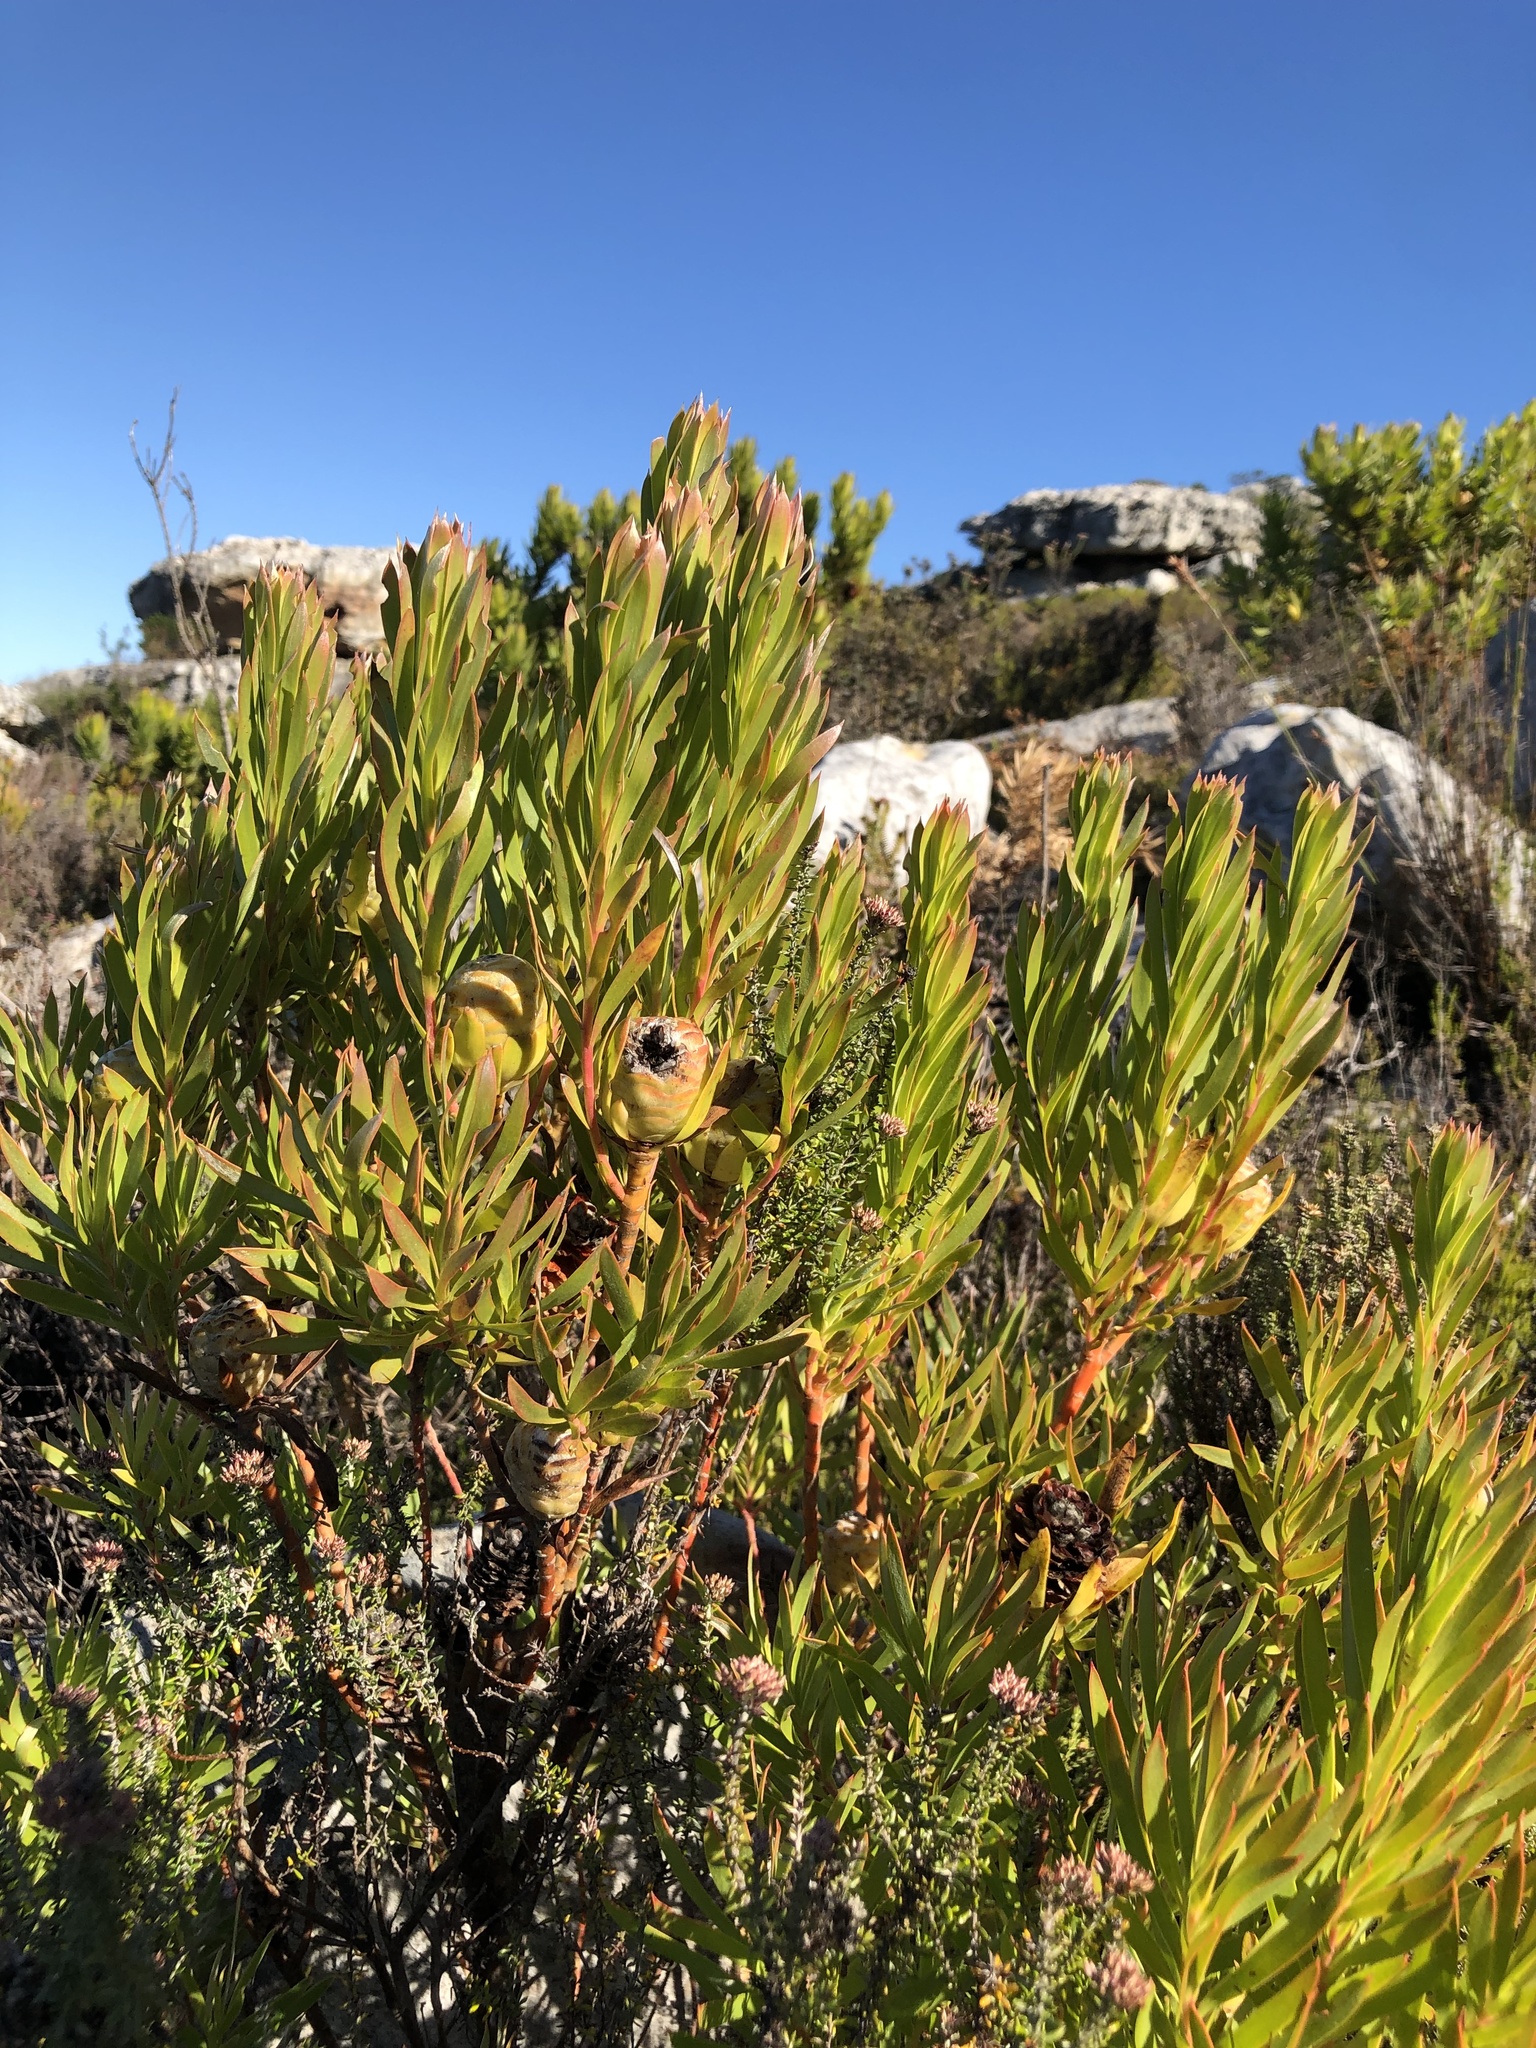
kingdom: Plantae
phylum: Tracheophyta
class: Magnoliopsida
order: Proteales
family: Proteaceae
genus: Leucadendron
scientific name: Leucadendron xanthoconus
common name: Sickle-leaf conebush
